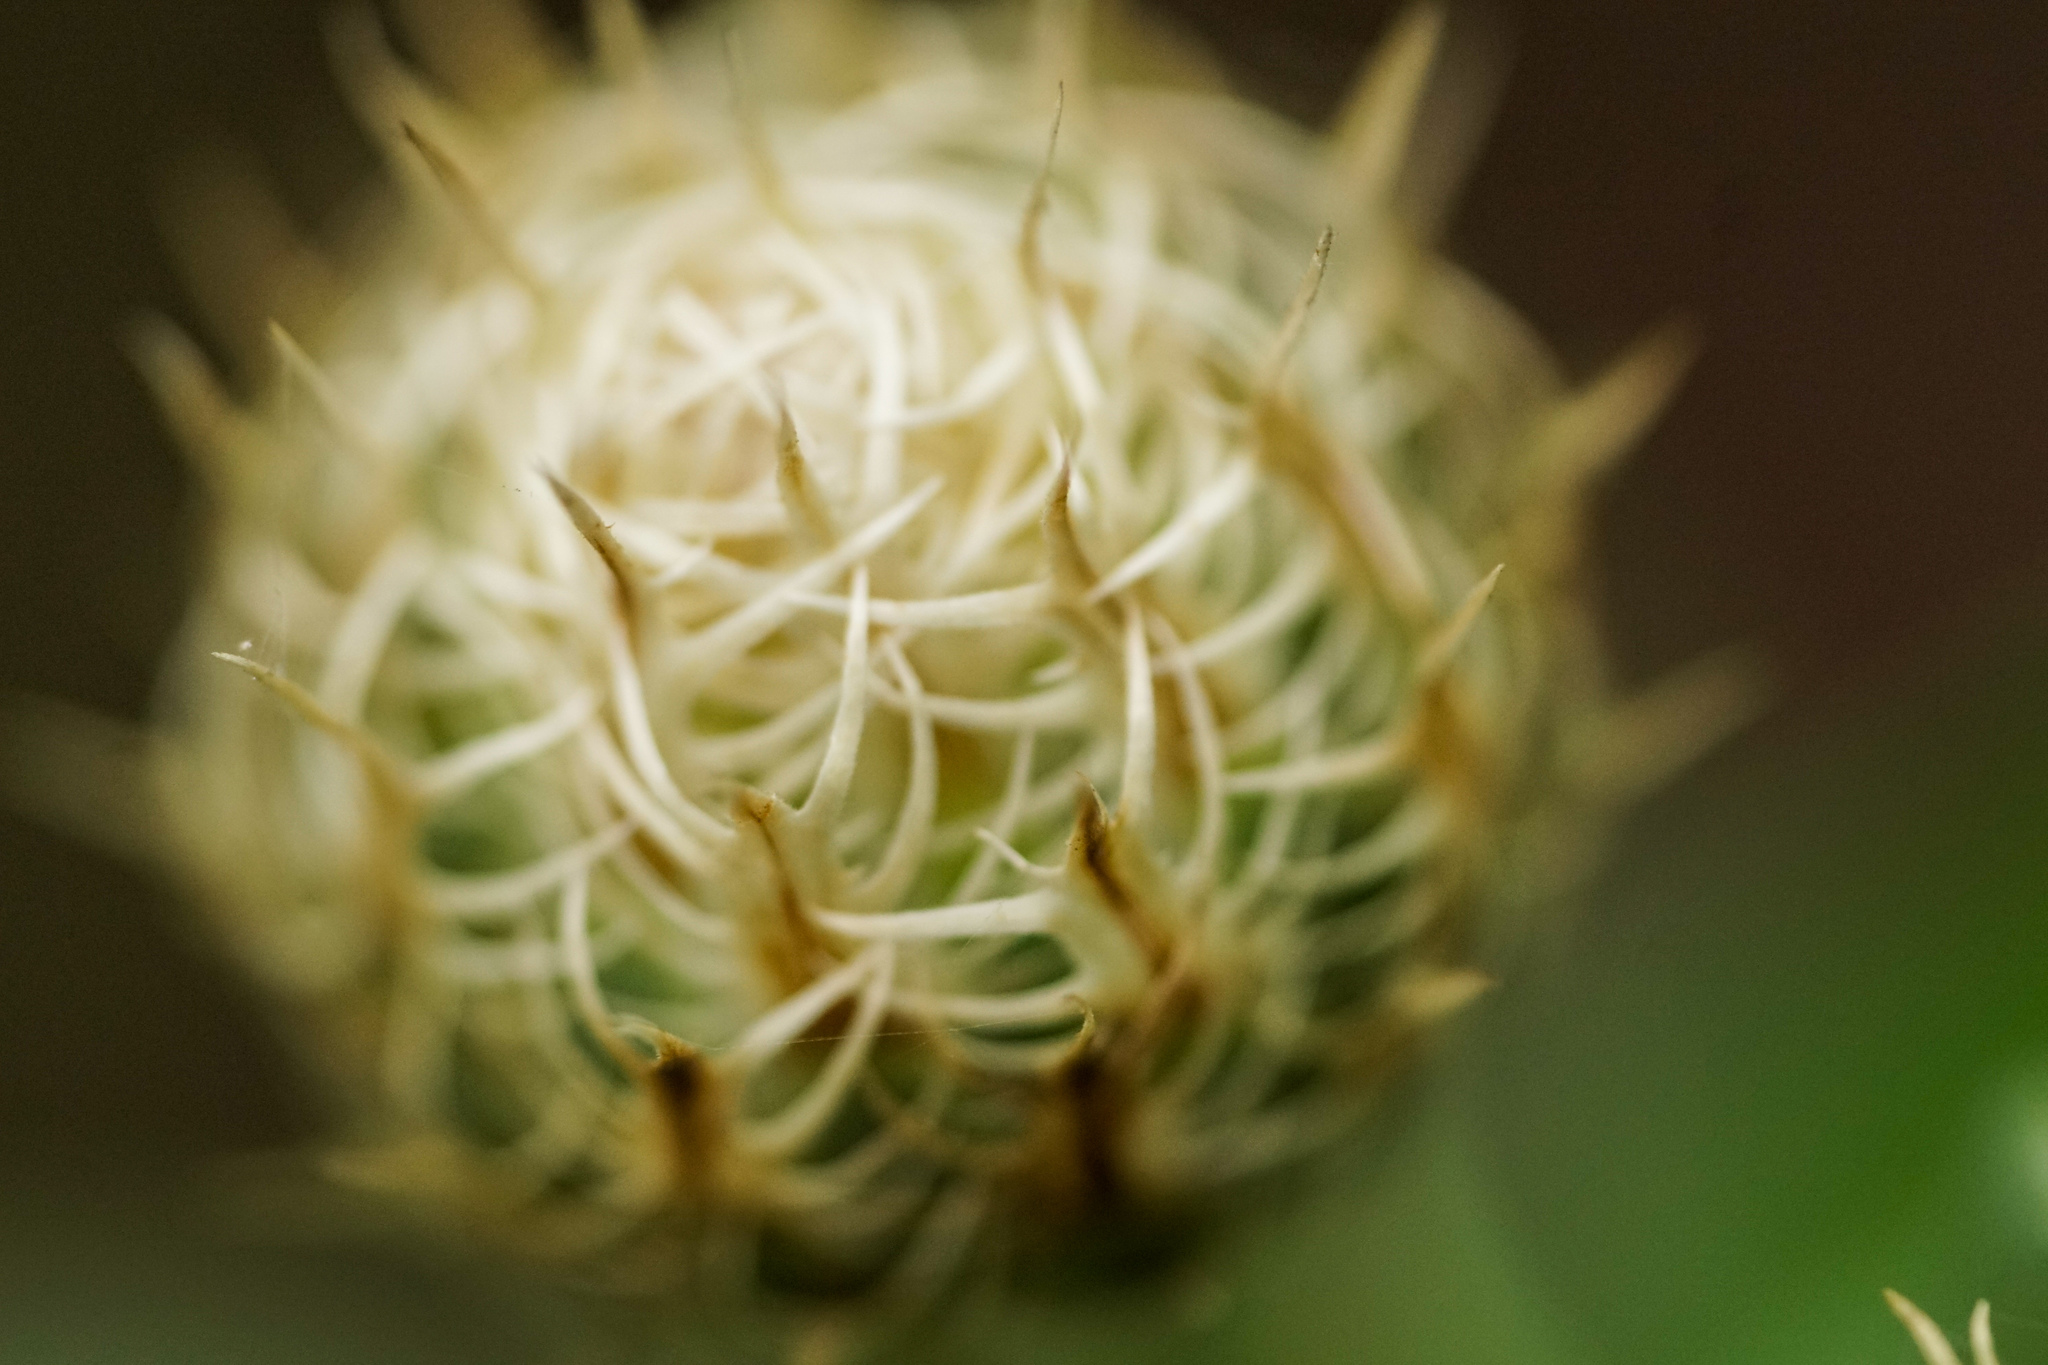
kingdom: Plantae
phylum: Tracheophyta
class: Magnoliopsida
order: Asterales
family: Asteraceae
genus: Plectocephalus
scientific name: Plectocephalus americanus
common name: American basket-flower
